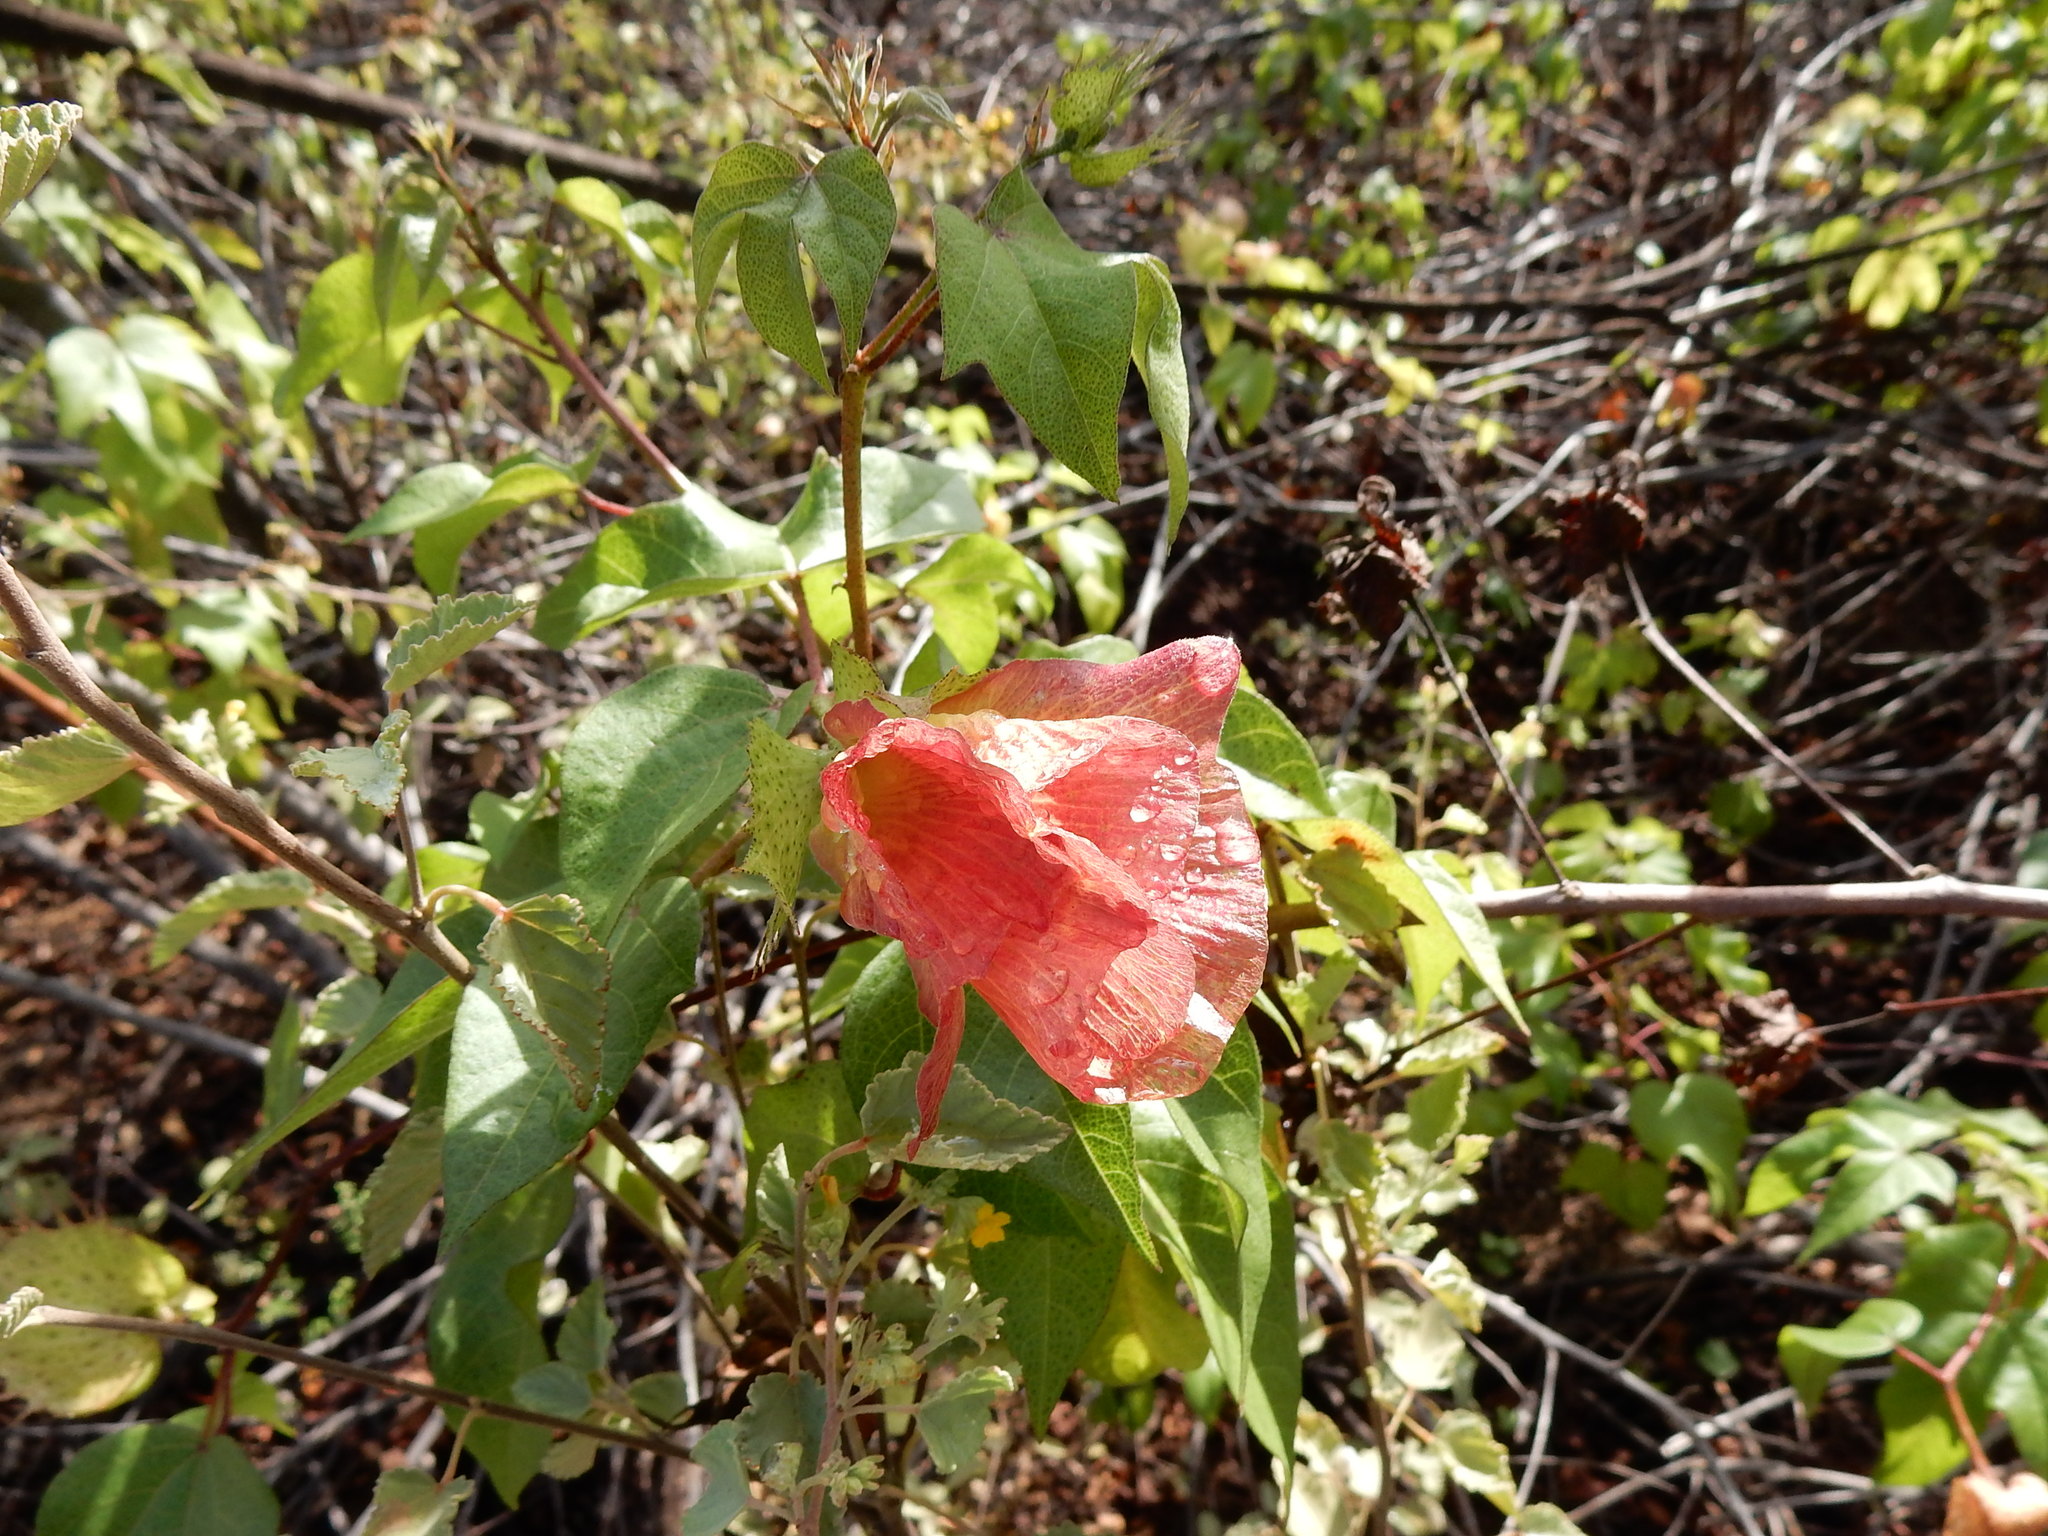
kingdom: Plantae
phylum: Tracheophyta
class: Magnoliopsida
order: Malvales
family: Malvaceae
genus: Gossypium
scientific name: Gossypium darwinii
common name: Darwin's cotton
